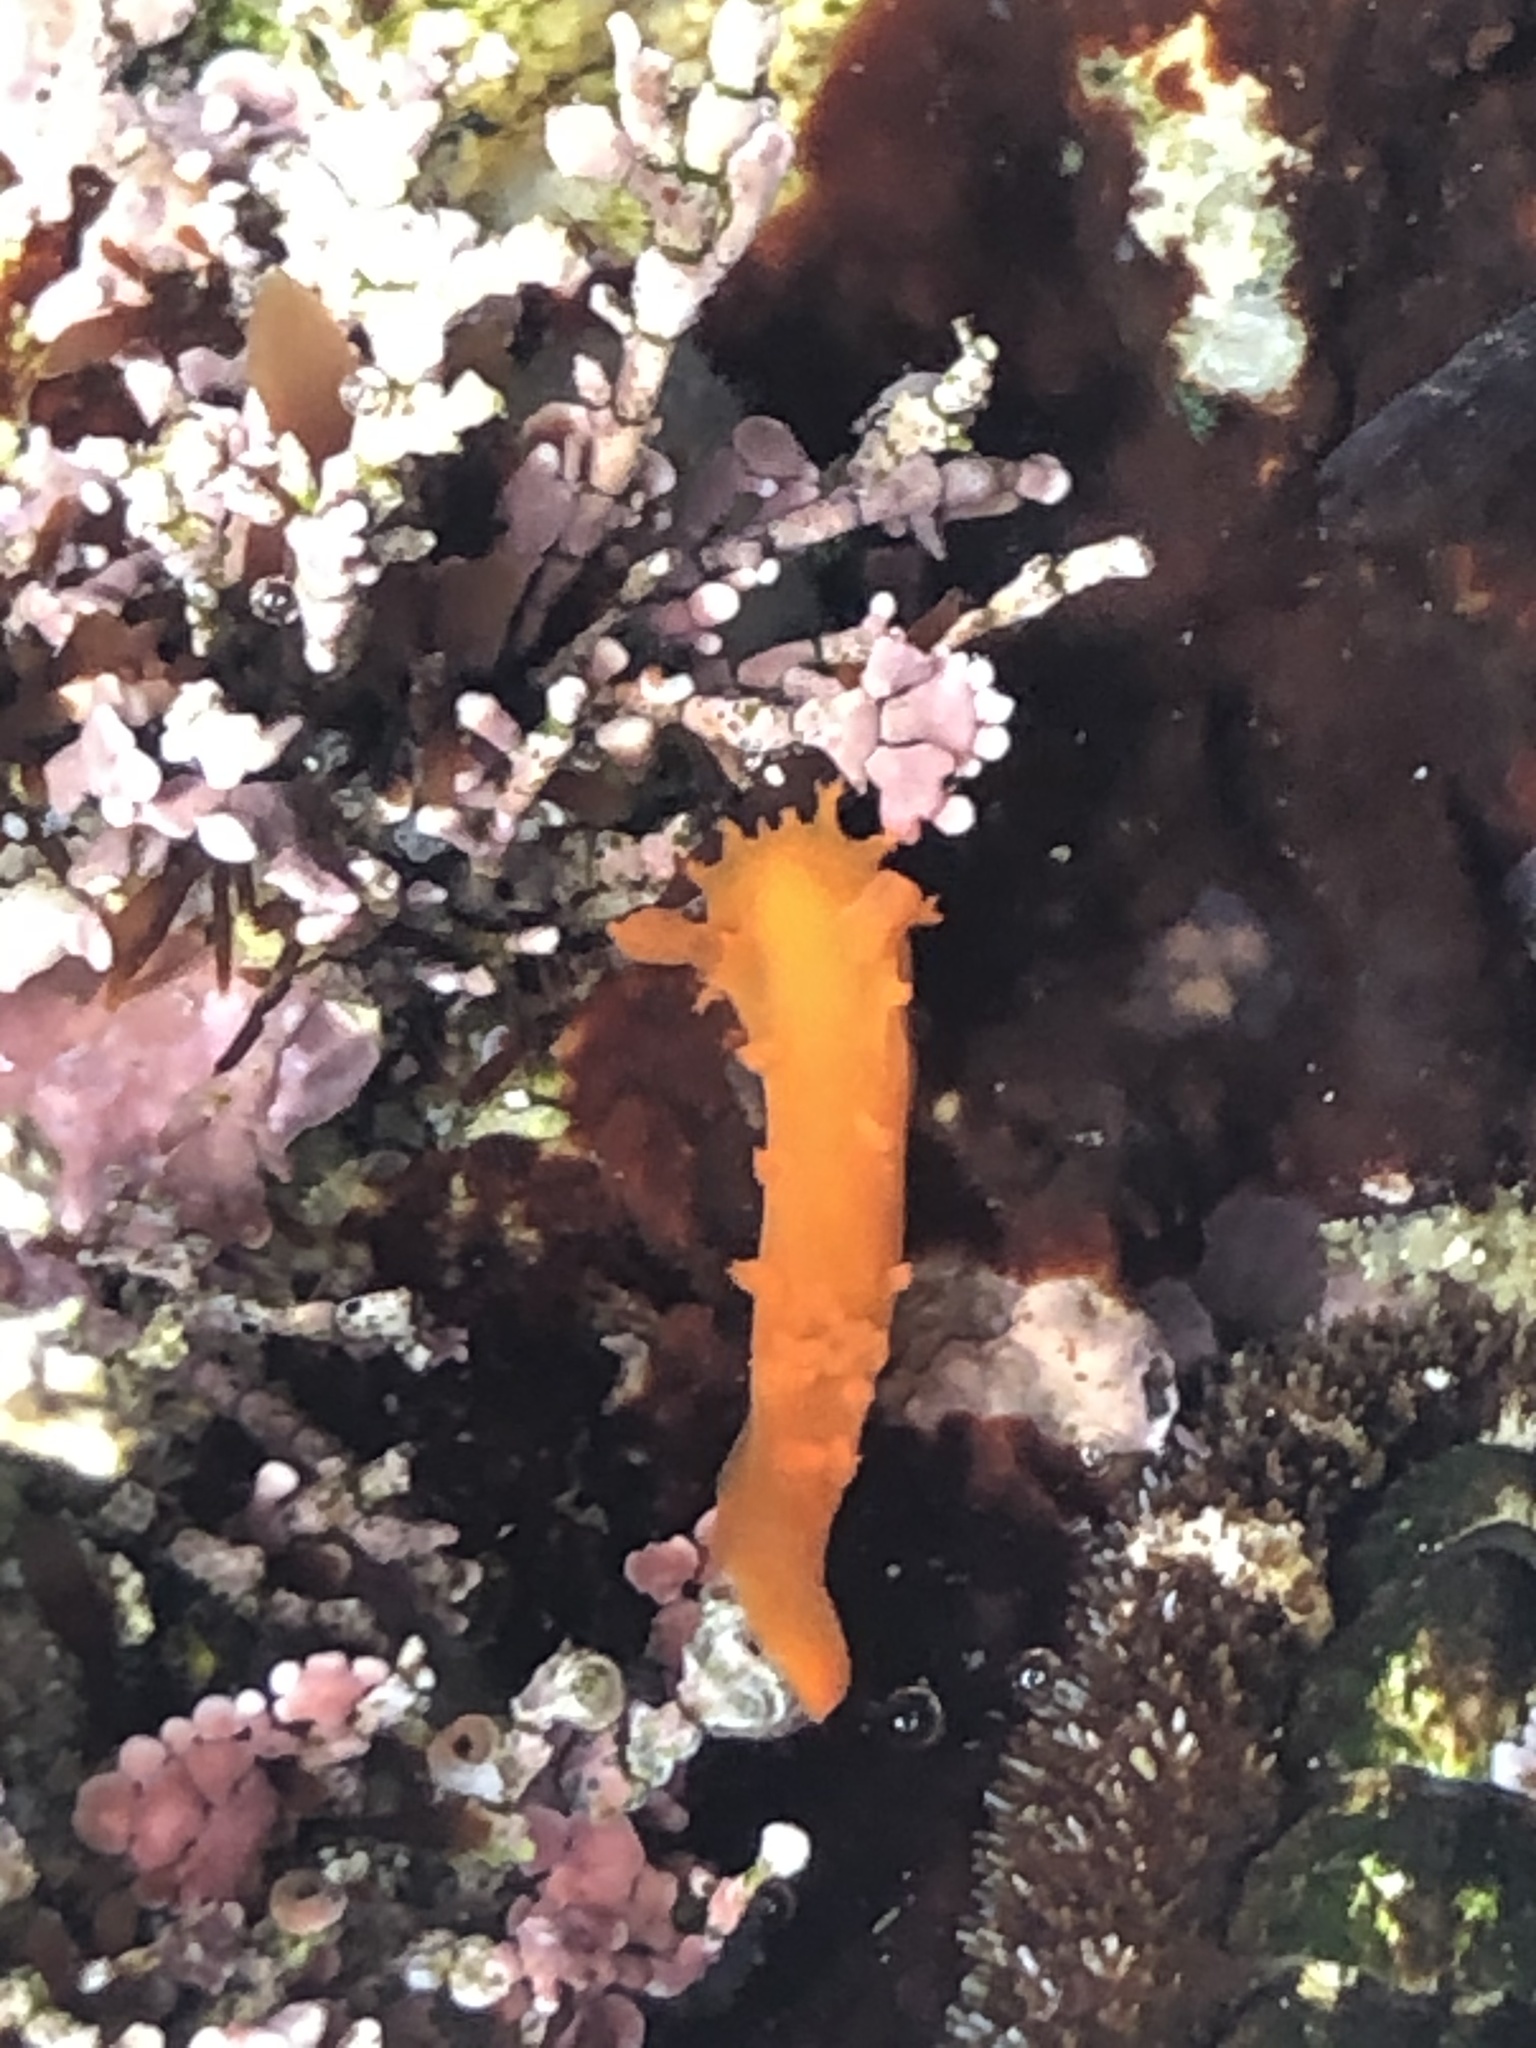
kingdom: Animalia
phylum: Mollusca
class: Gastropoda
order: Nudibranchia
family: Polyceridae
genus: Triopha
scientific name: Triopha maculata
